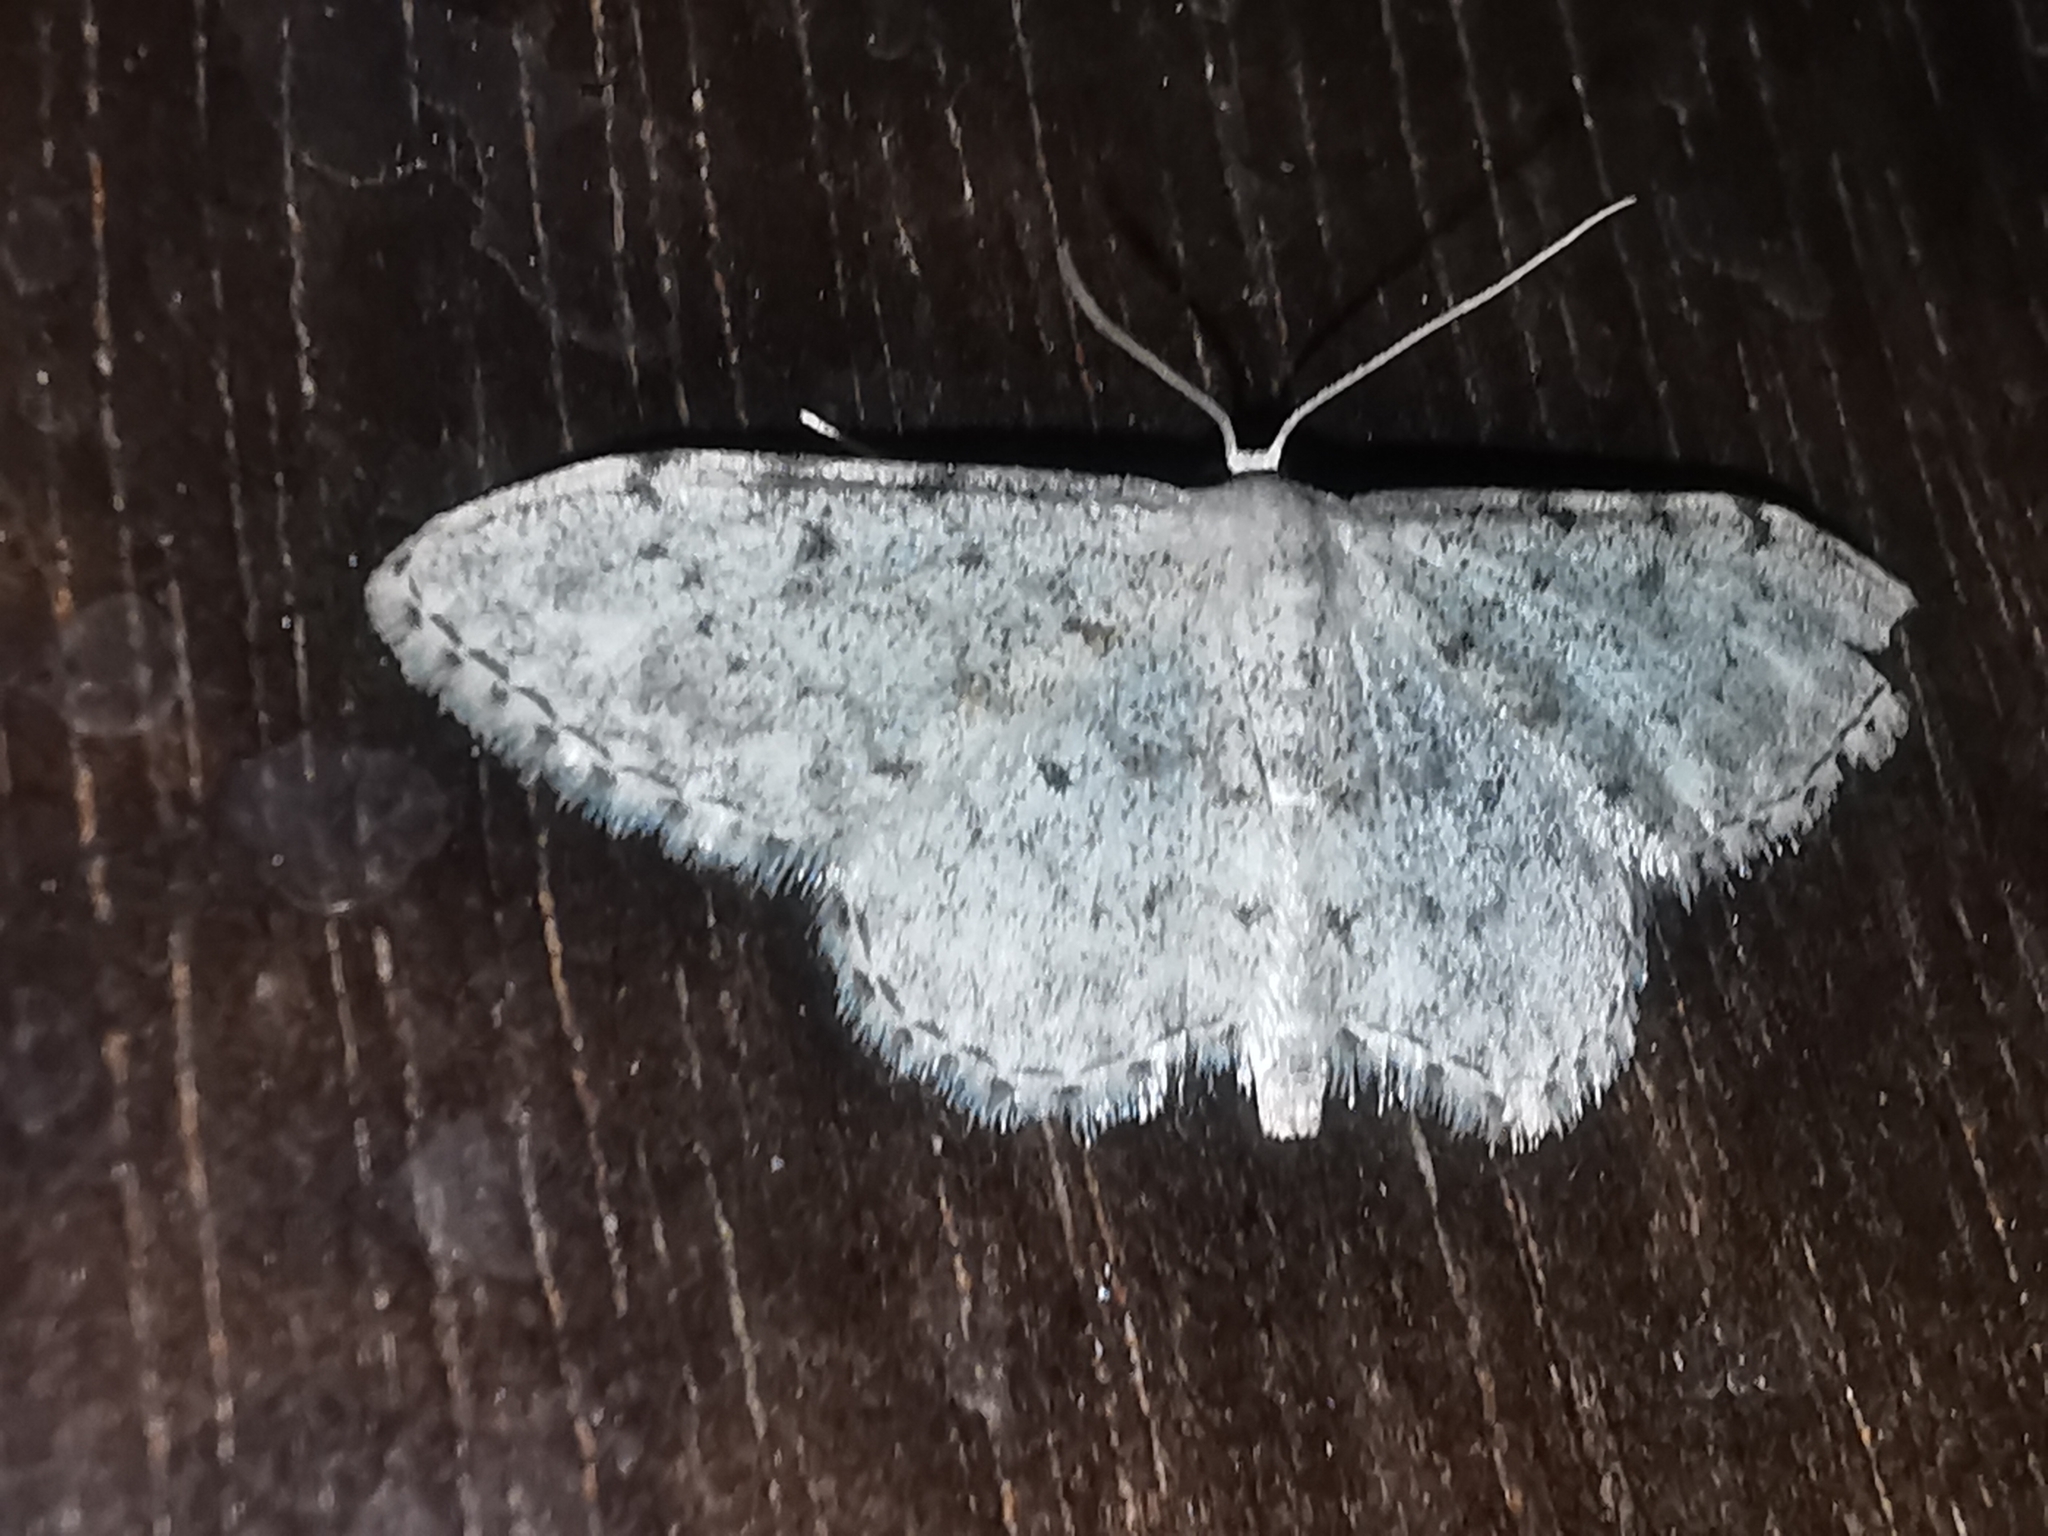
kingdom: Animalia
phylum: Arthropoda
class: Insecta
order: Lepidoptera
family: Geometridae
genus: Idaea
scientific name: Idaea camparia
